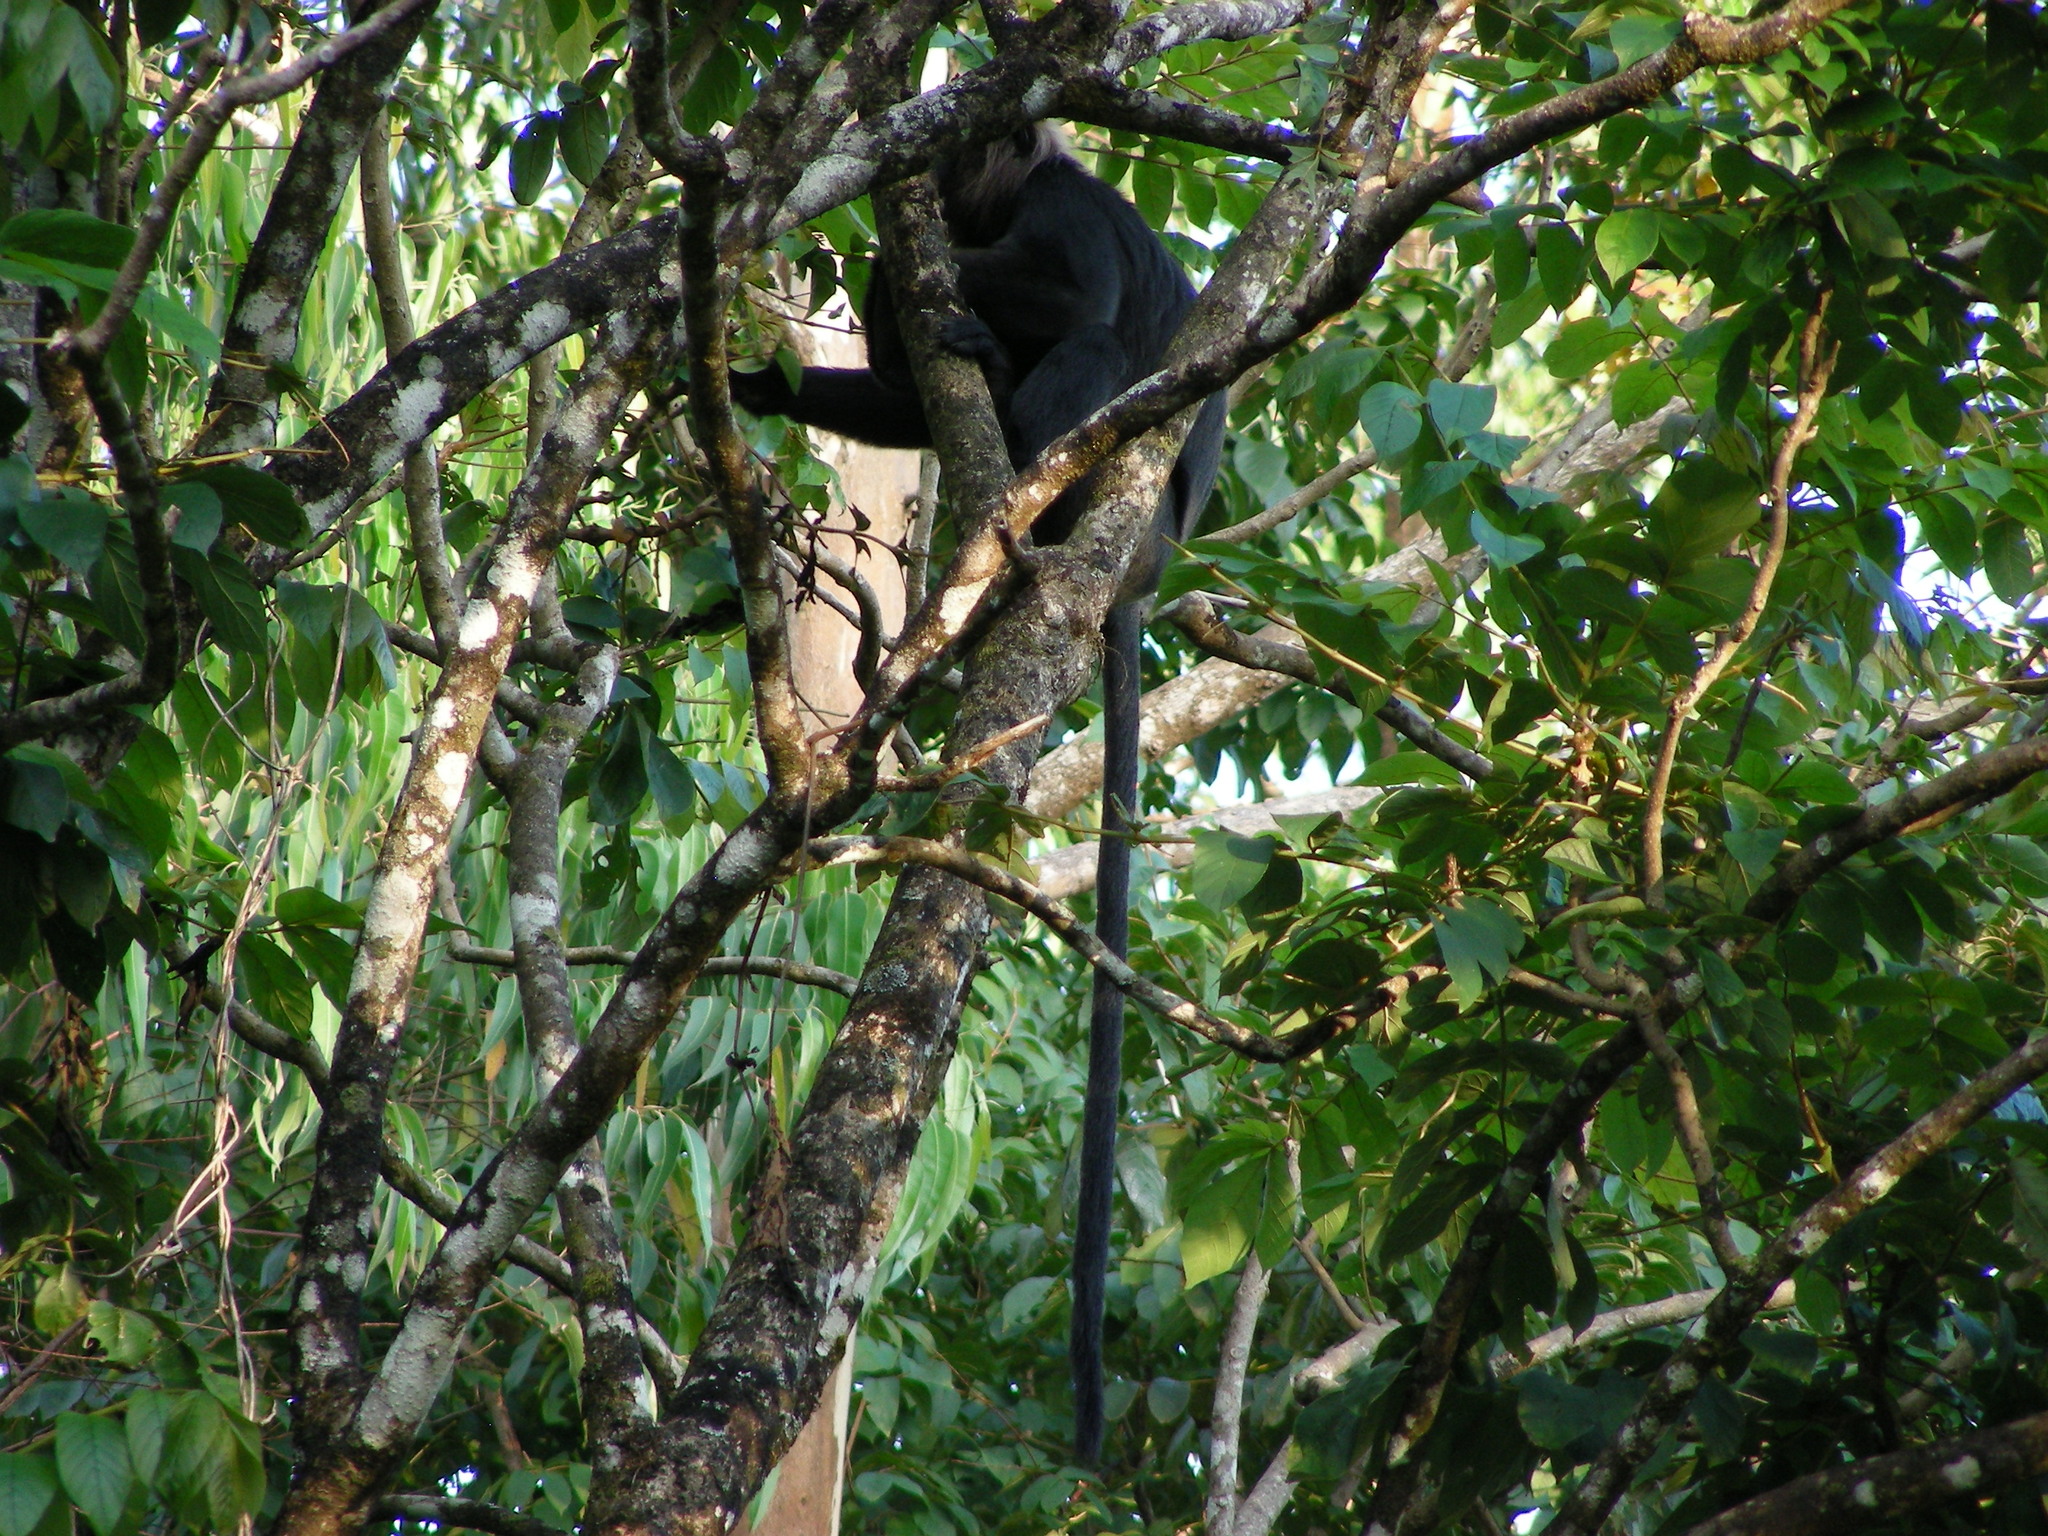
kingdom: Animalia
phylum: Chordata
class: Mammalia
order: Primates
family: Cercopithecidae
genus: Semnopithecus
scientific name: Semnopithecus johnii
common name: Nilgiri langur
